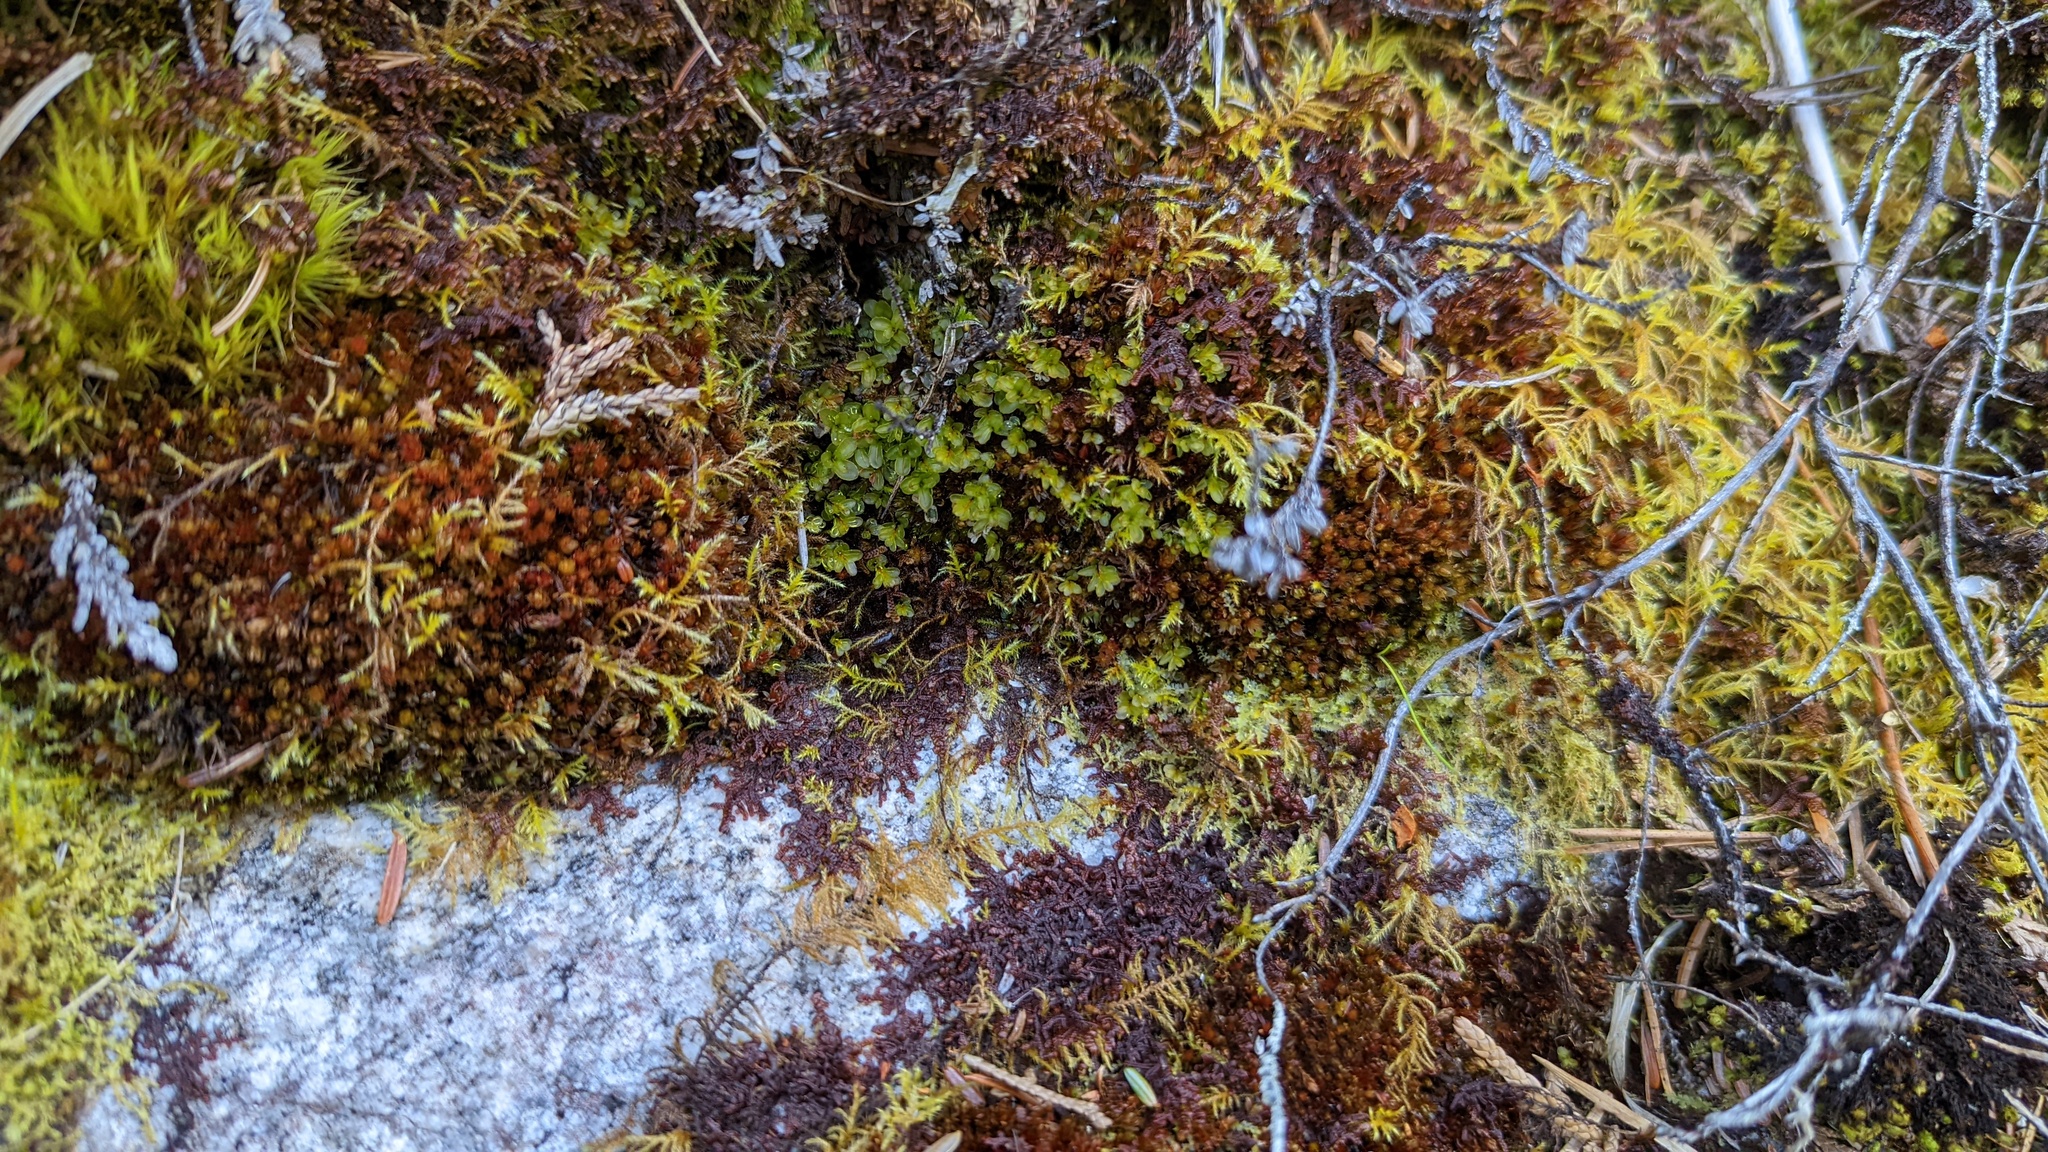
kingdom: Plantae
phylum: Marchantiophyta
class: Jungermanniopsida
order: Jungermanniales
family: Myliaceae
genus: Mylia
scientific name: Mylia taylorii
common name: Taylor s flapwort
